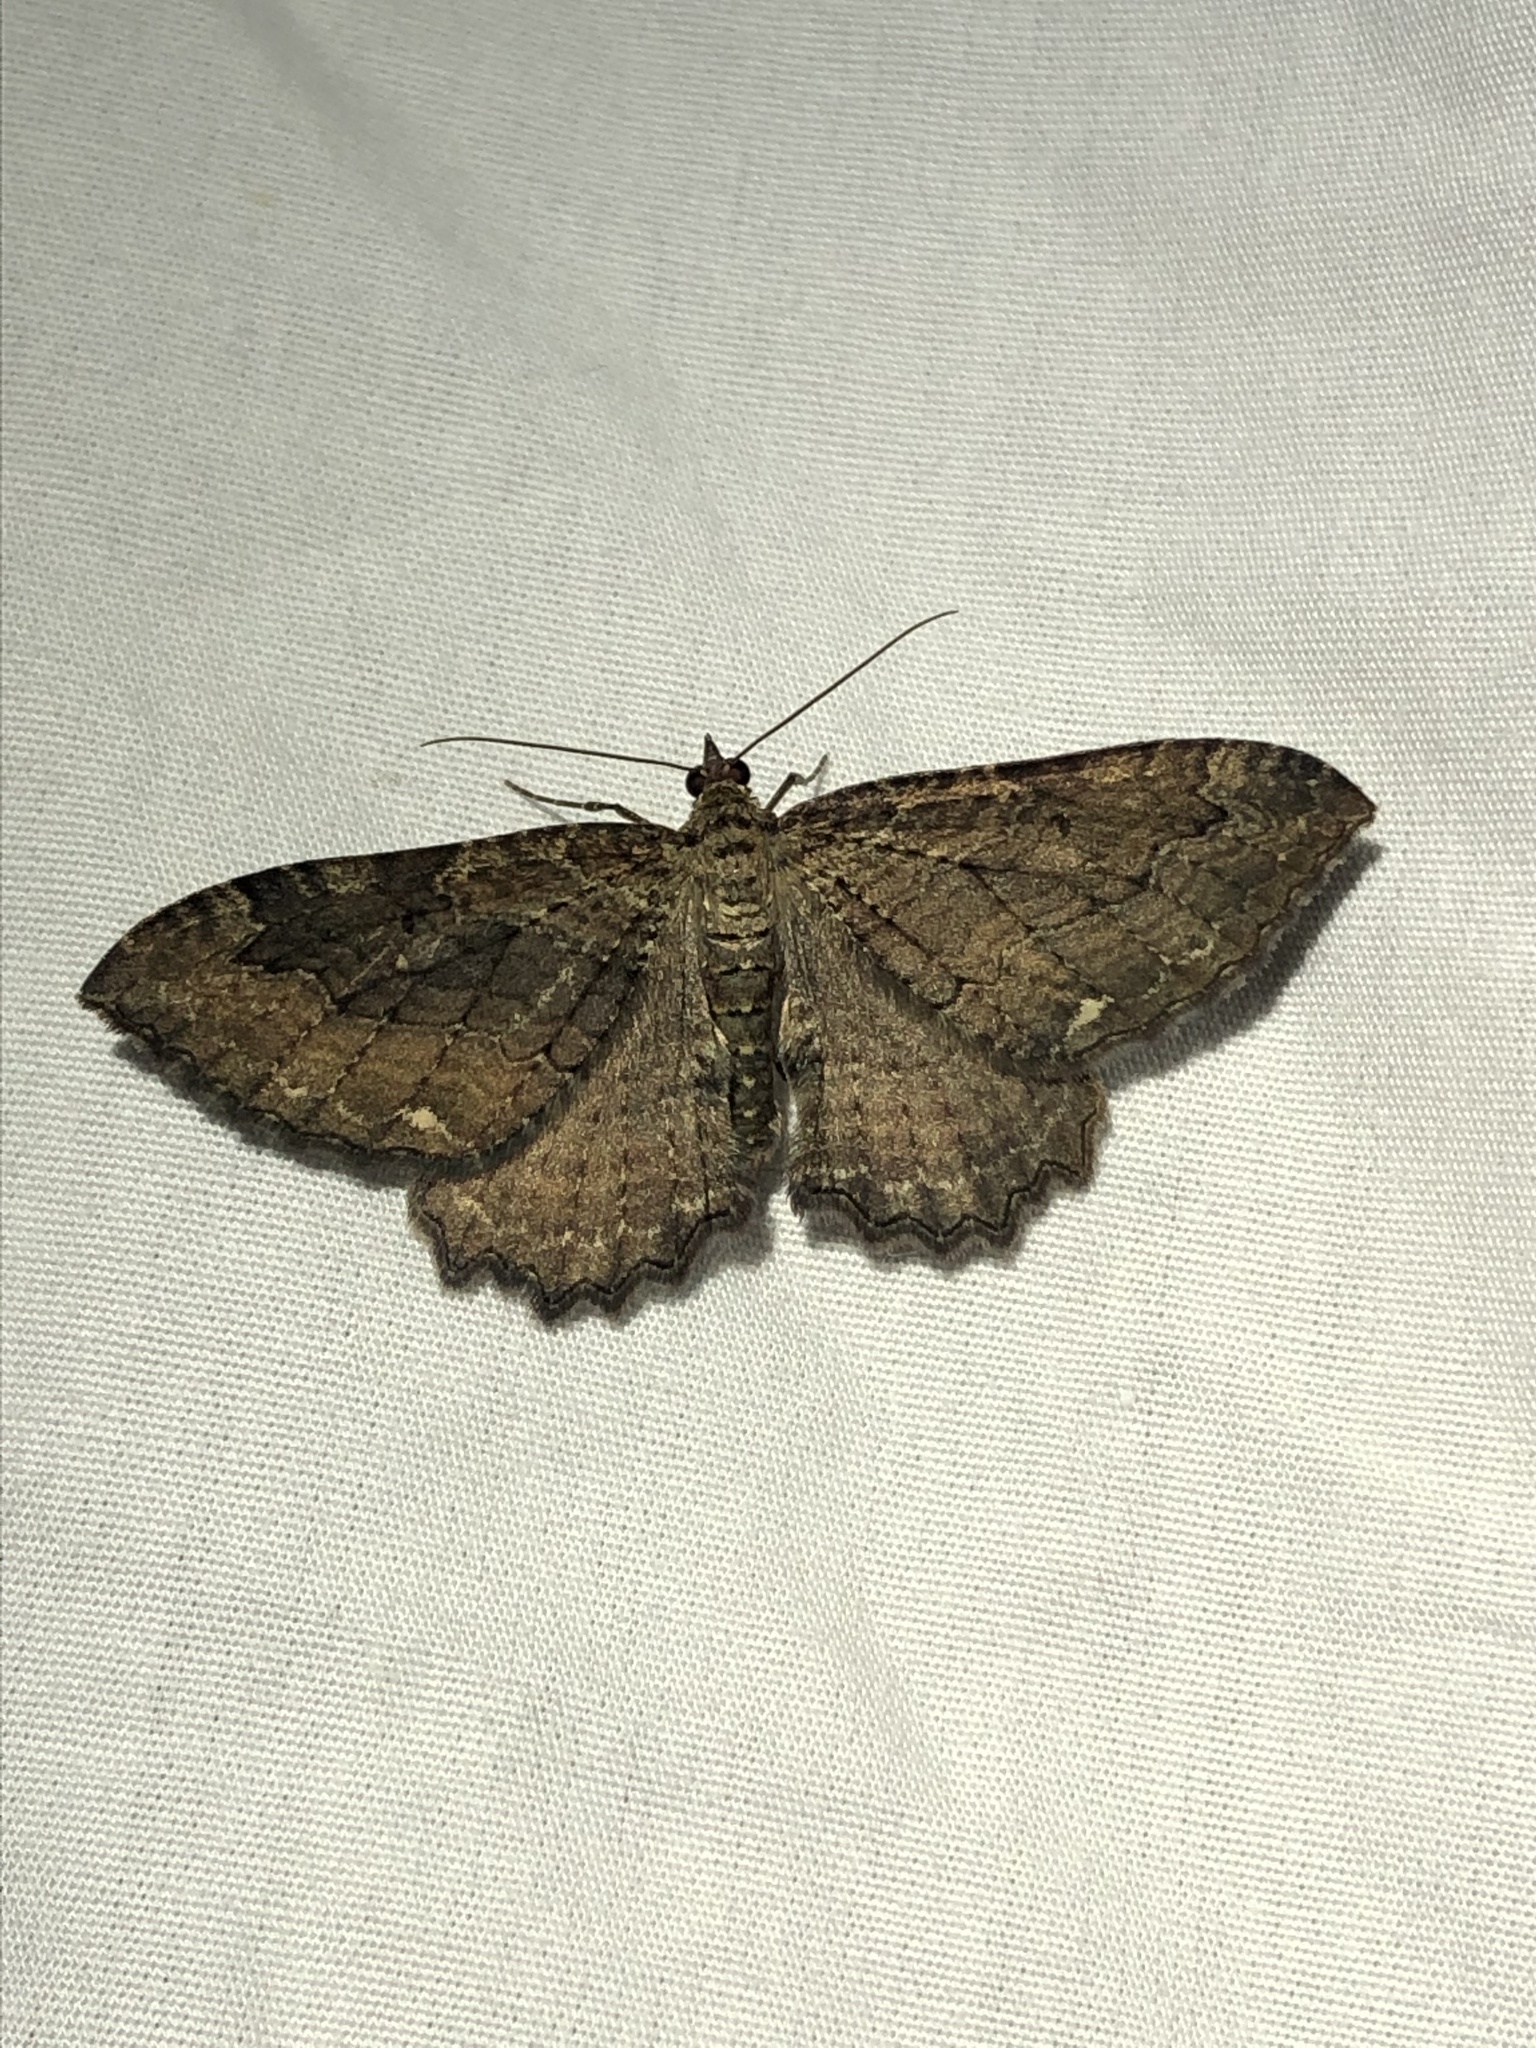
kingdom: Animalia
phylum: Arthropoda
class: Insecta
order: Lepidoptera
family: Geometridae
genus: Rheumaptera
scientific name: Rheumaptera
